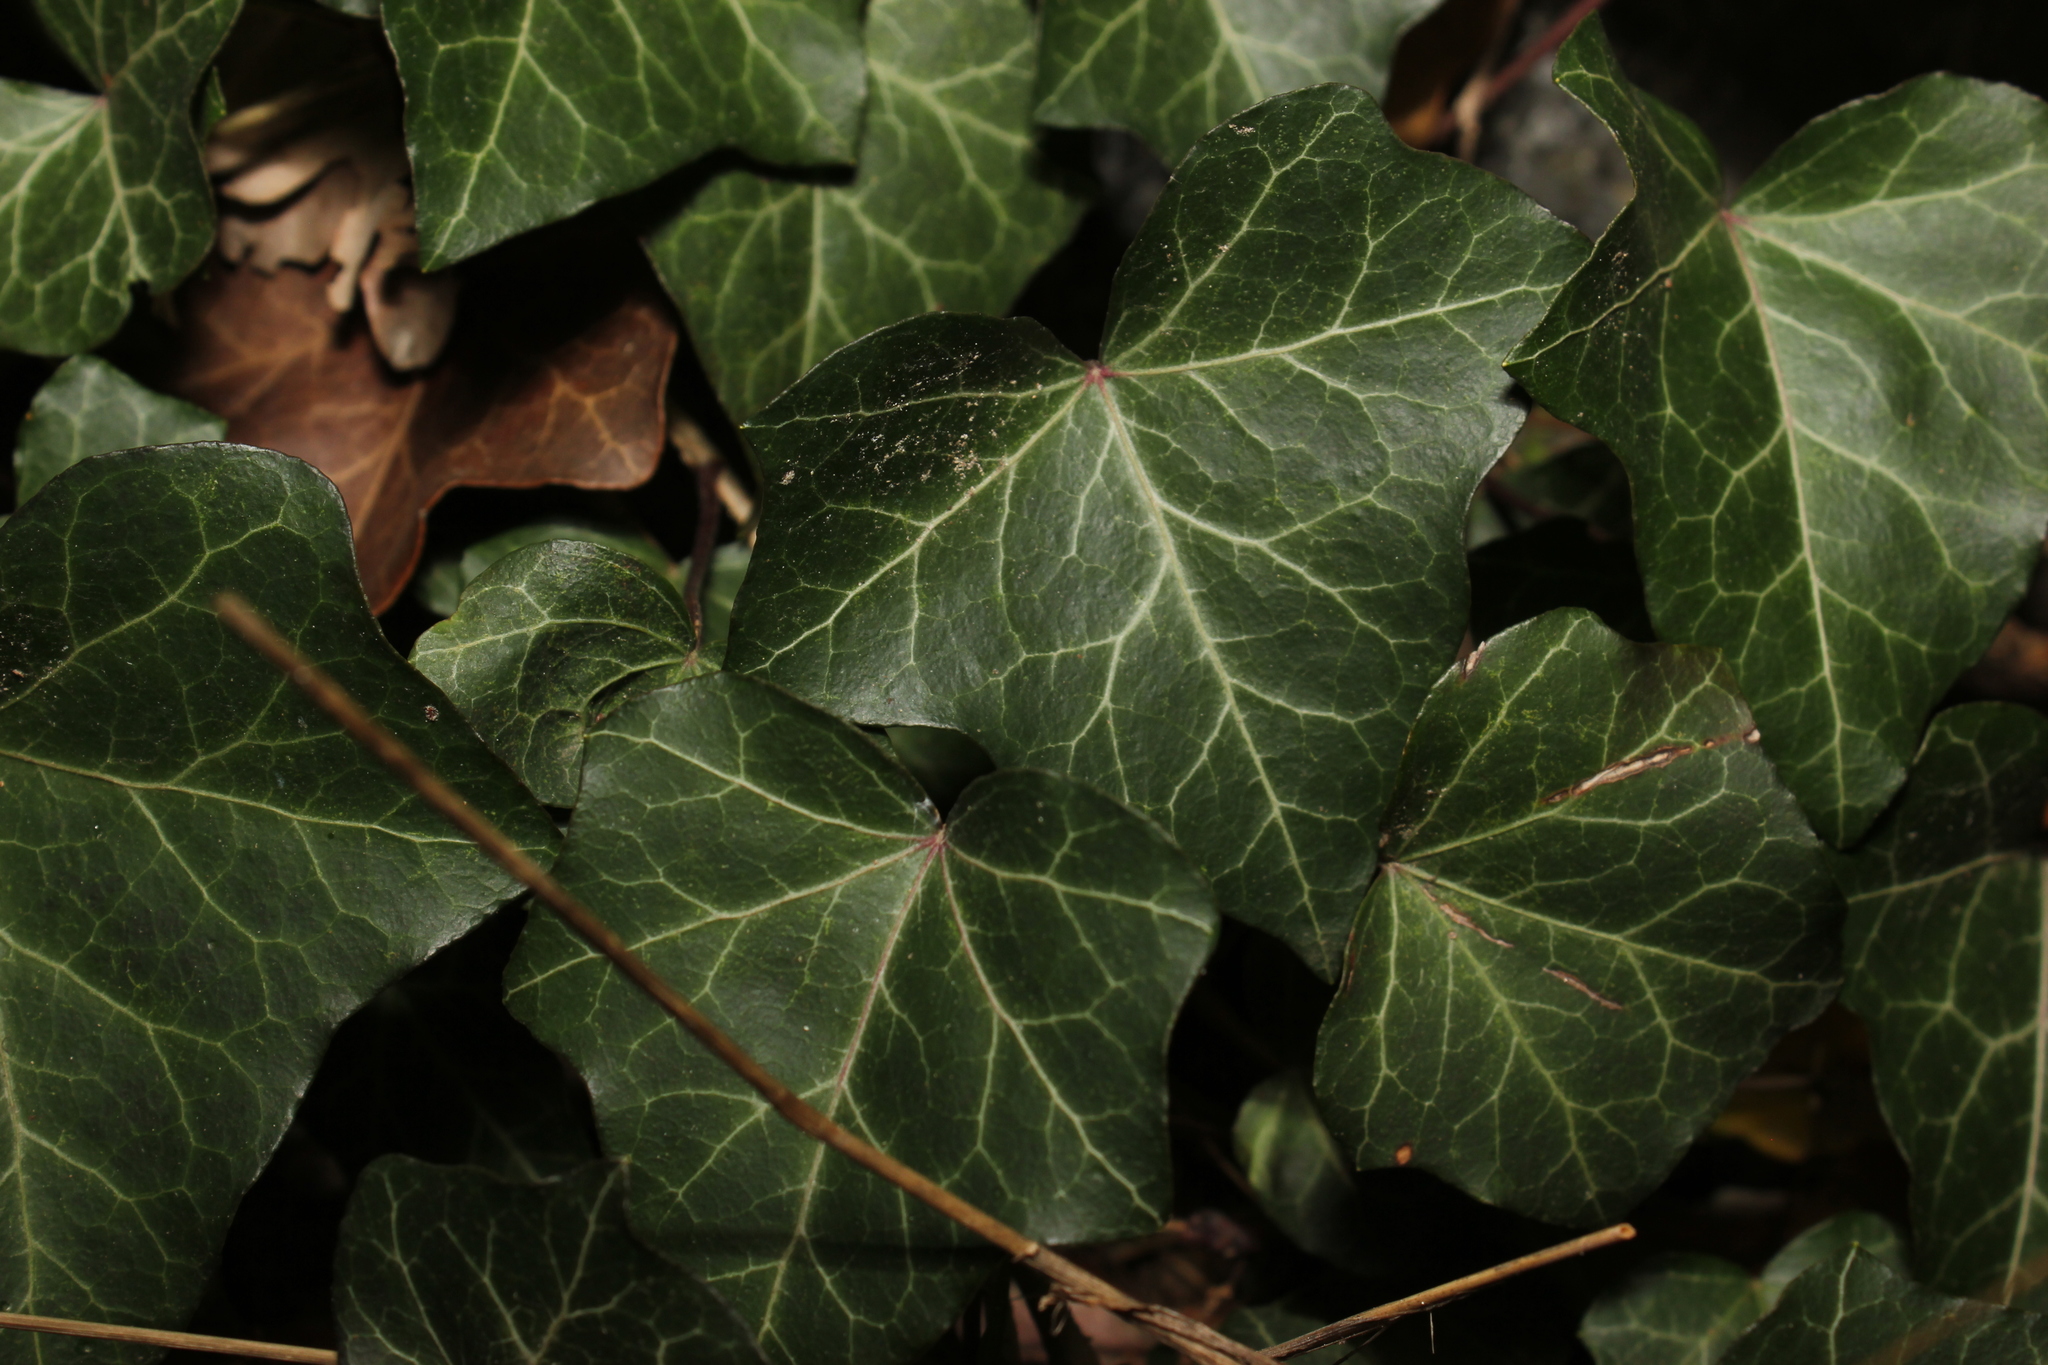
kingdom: Plantae
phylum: Tracheophyta
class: Magnoliopsida
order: Apiales
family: Araliaceae
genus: Hedera
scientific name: Hedera helix
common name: Ivy
